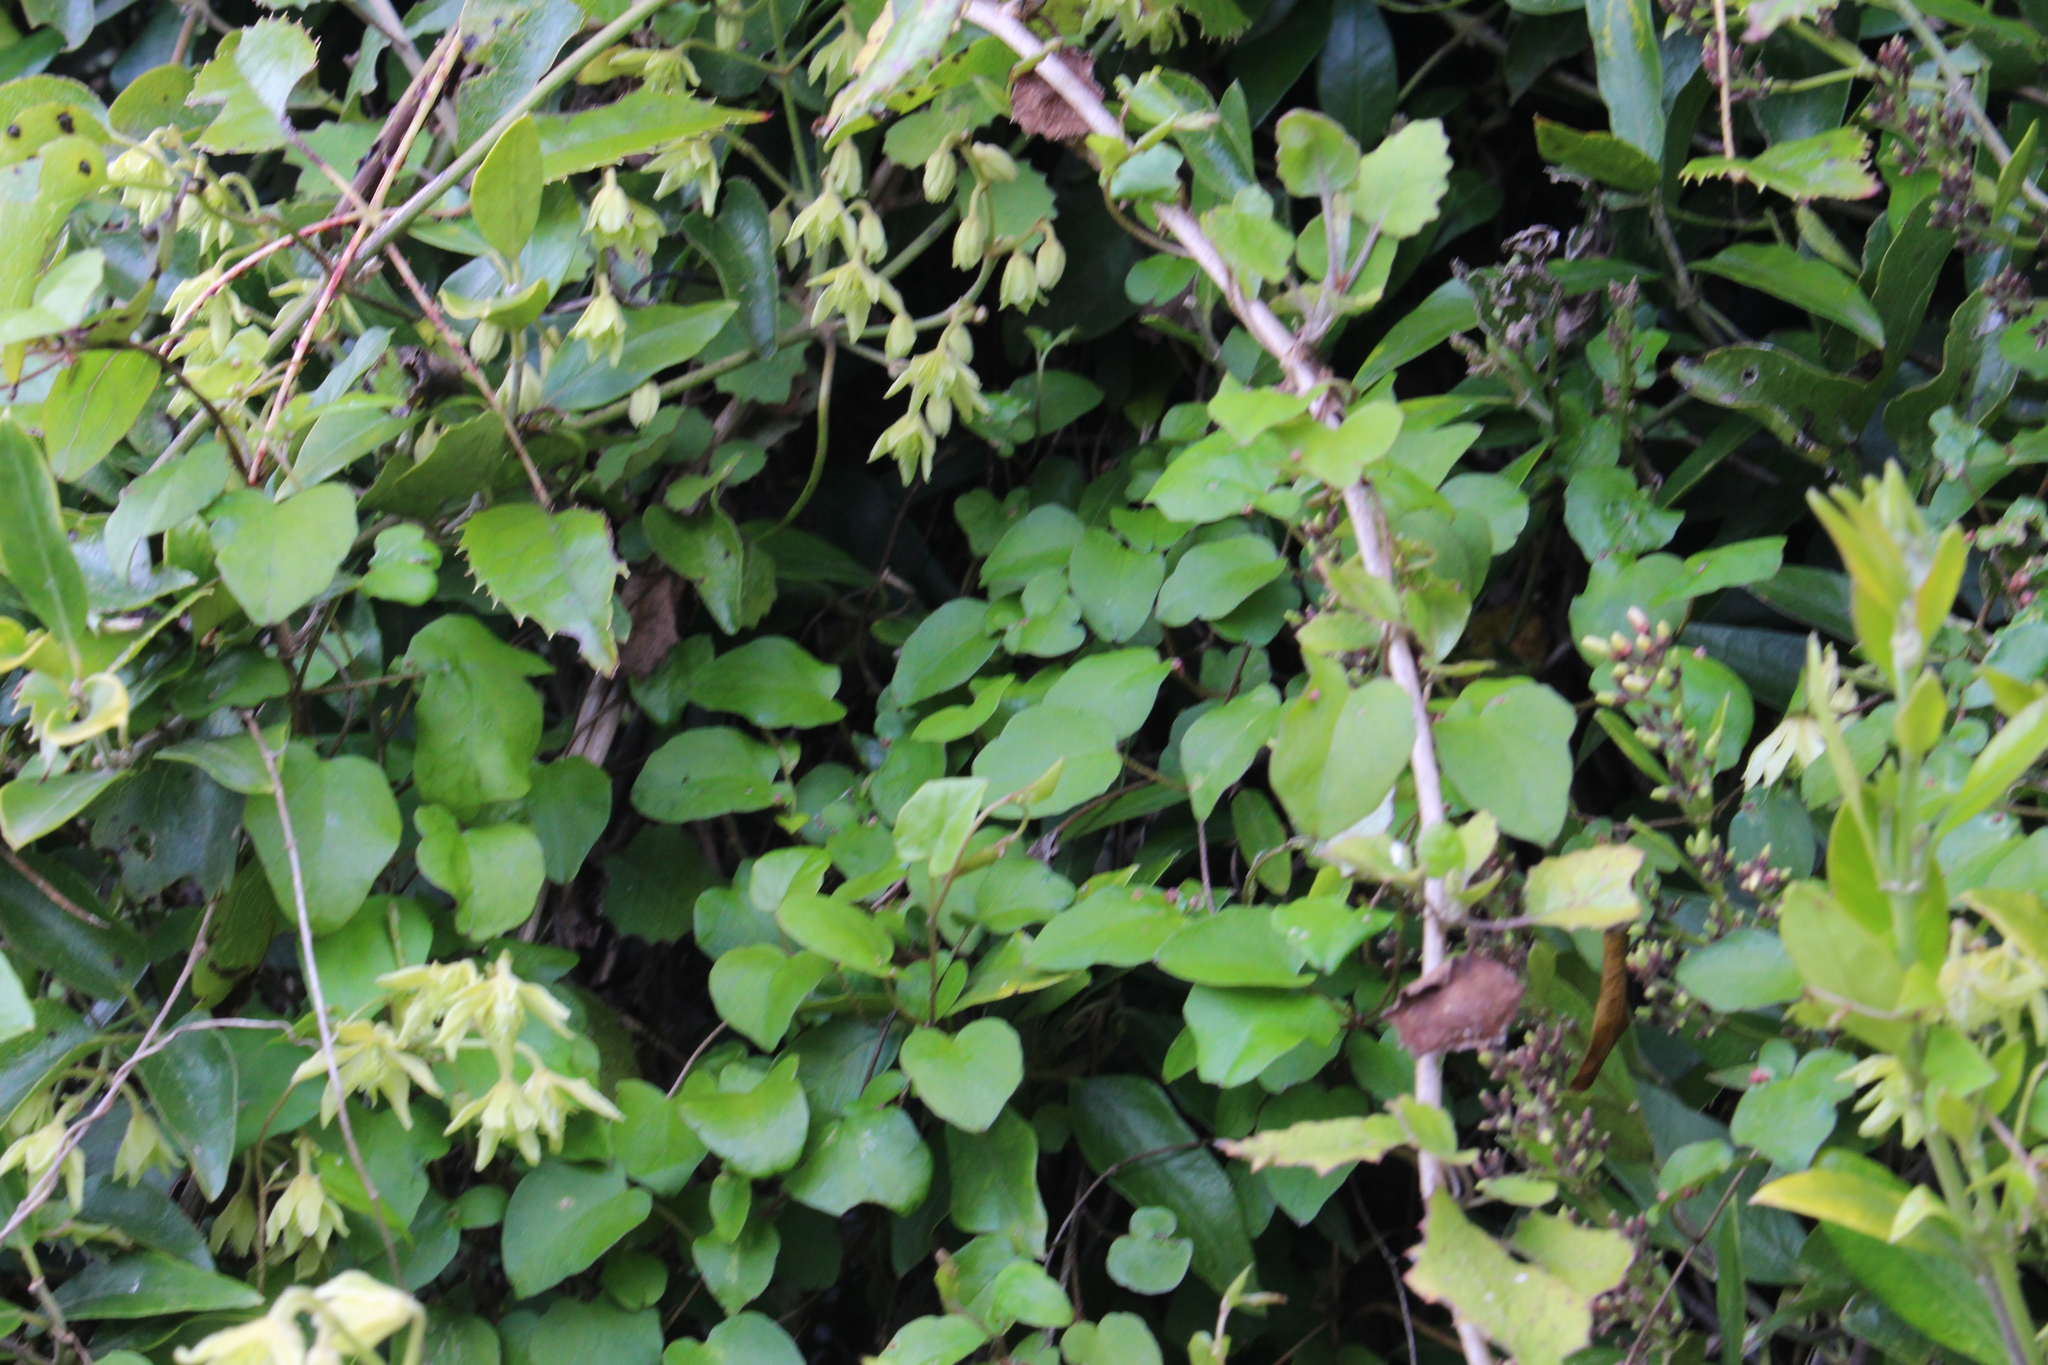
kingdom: Plantae
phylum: Tracheophyta
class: Magnoliopsida
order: Caryophyllales
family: Polygonaceae
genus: Muehlenbeckia
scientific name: Muehlenbeckia australis
